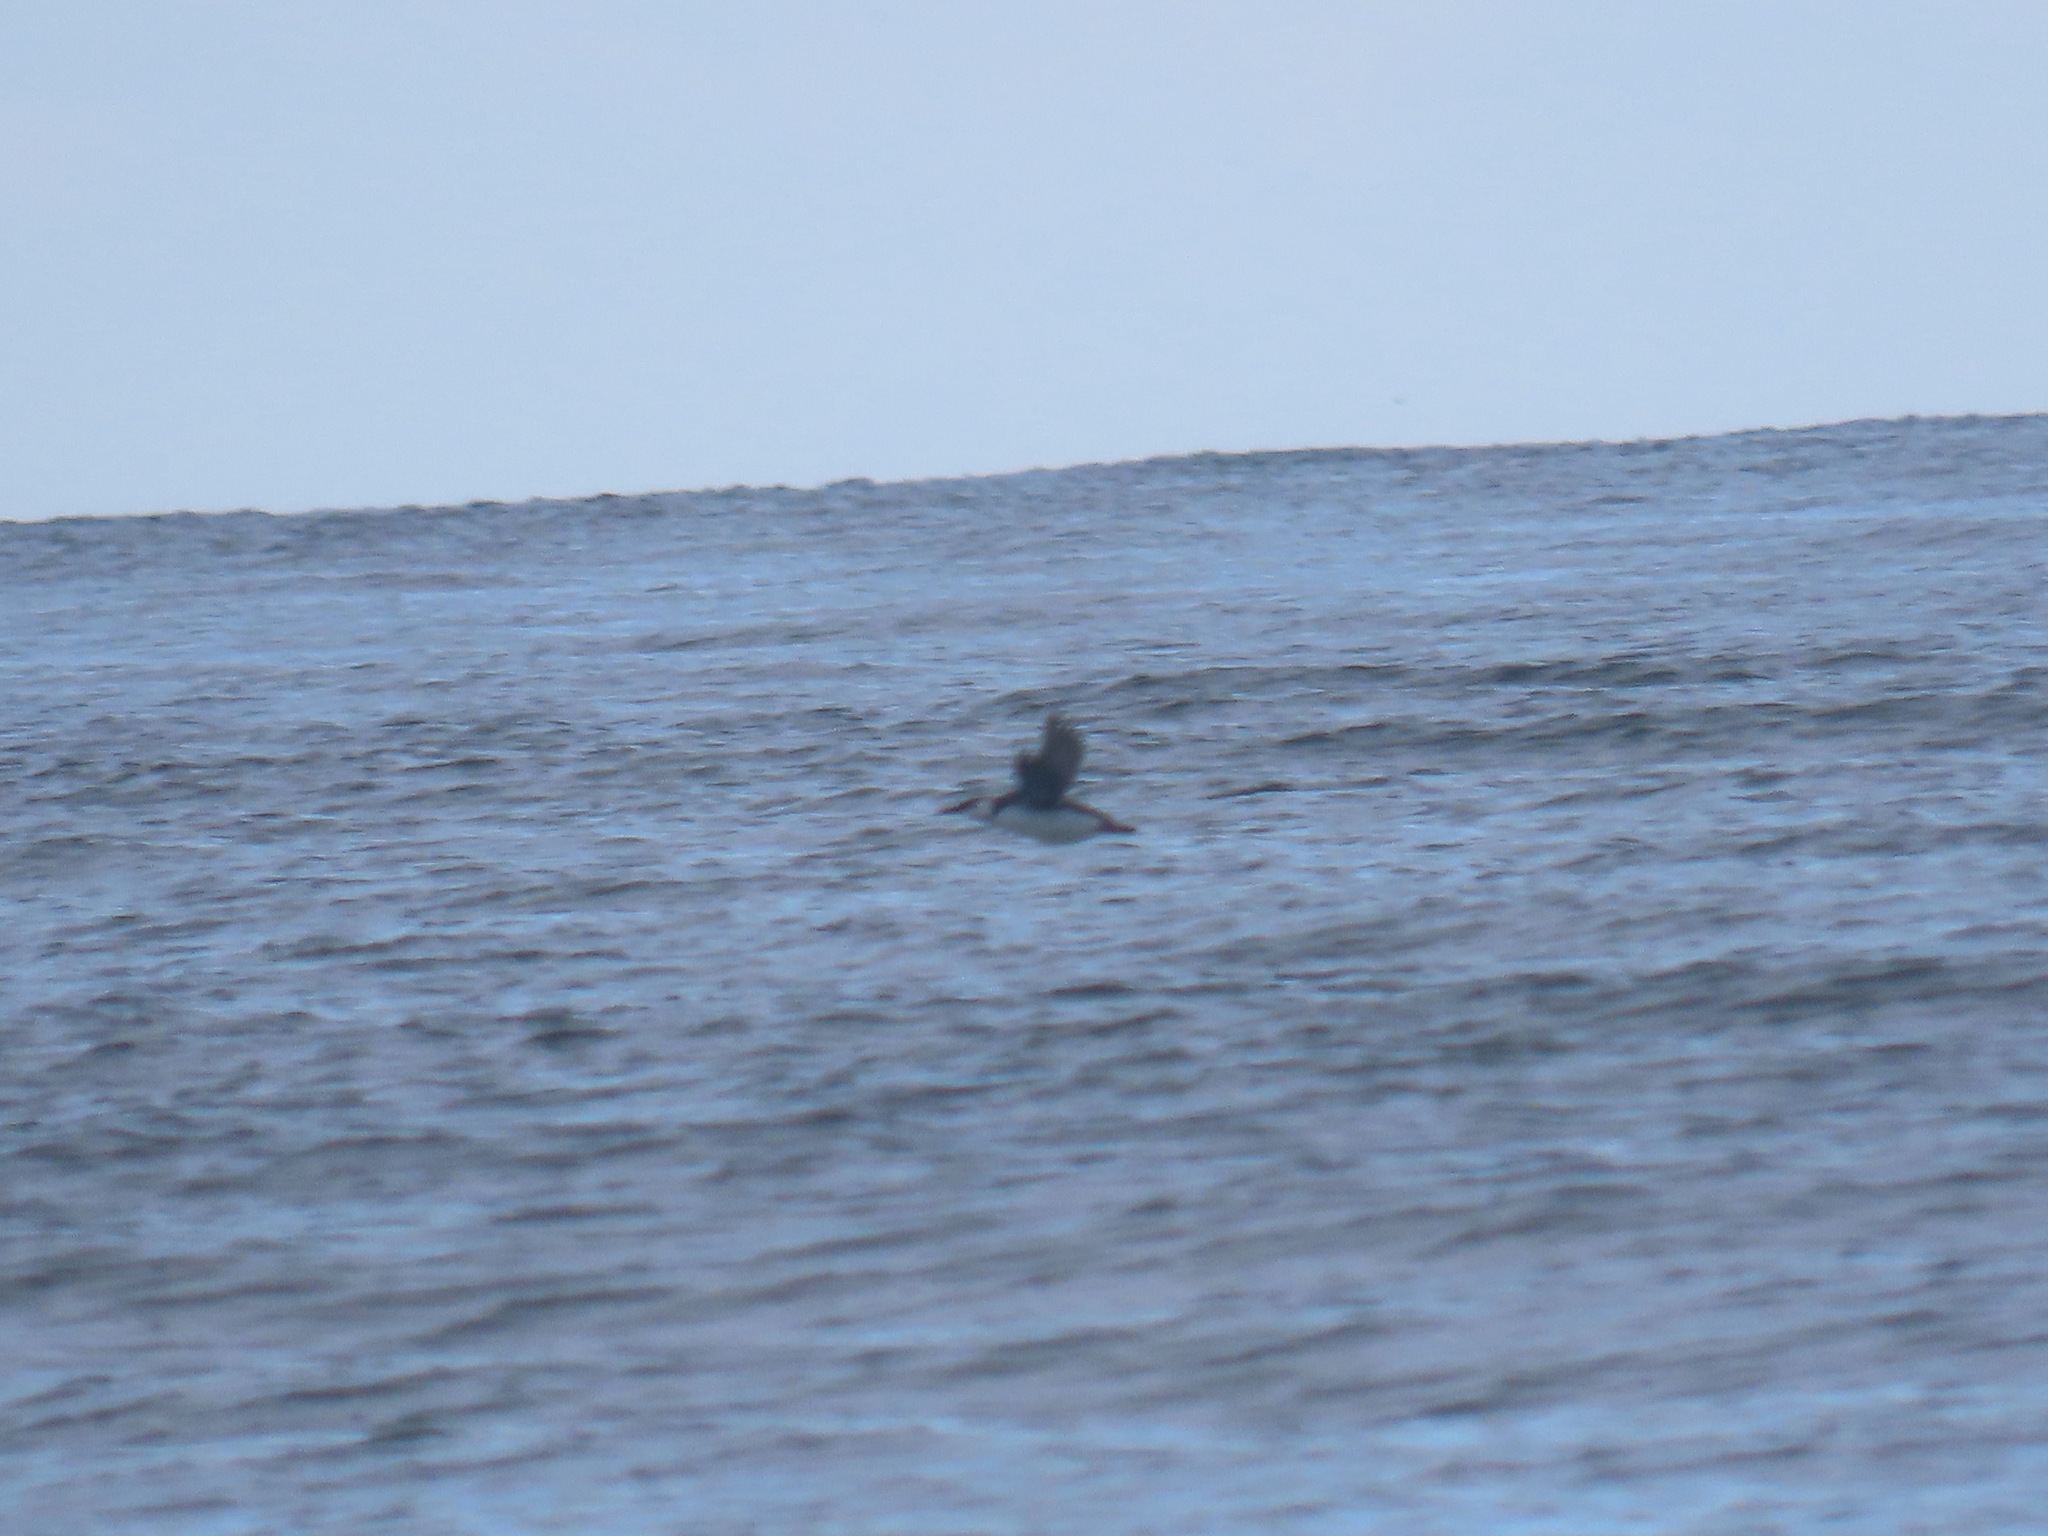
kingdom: Animalia
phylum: Chordata
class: Aves
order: Charadriiformes
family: Alcidae
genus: Uria
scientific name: Uria aalge
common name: Common murre
